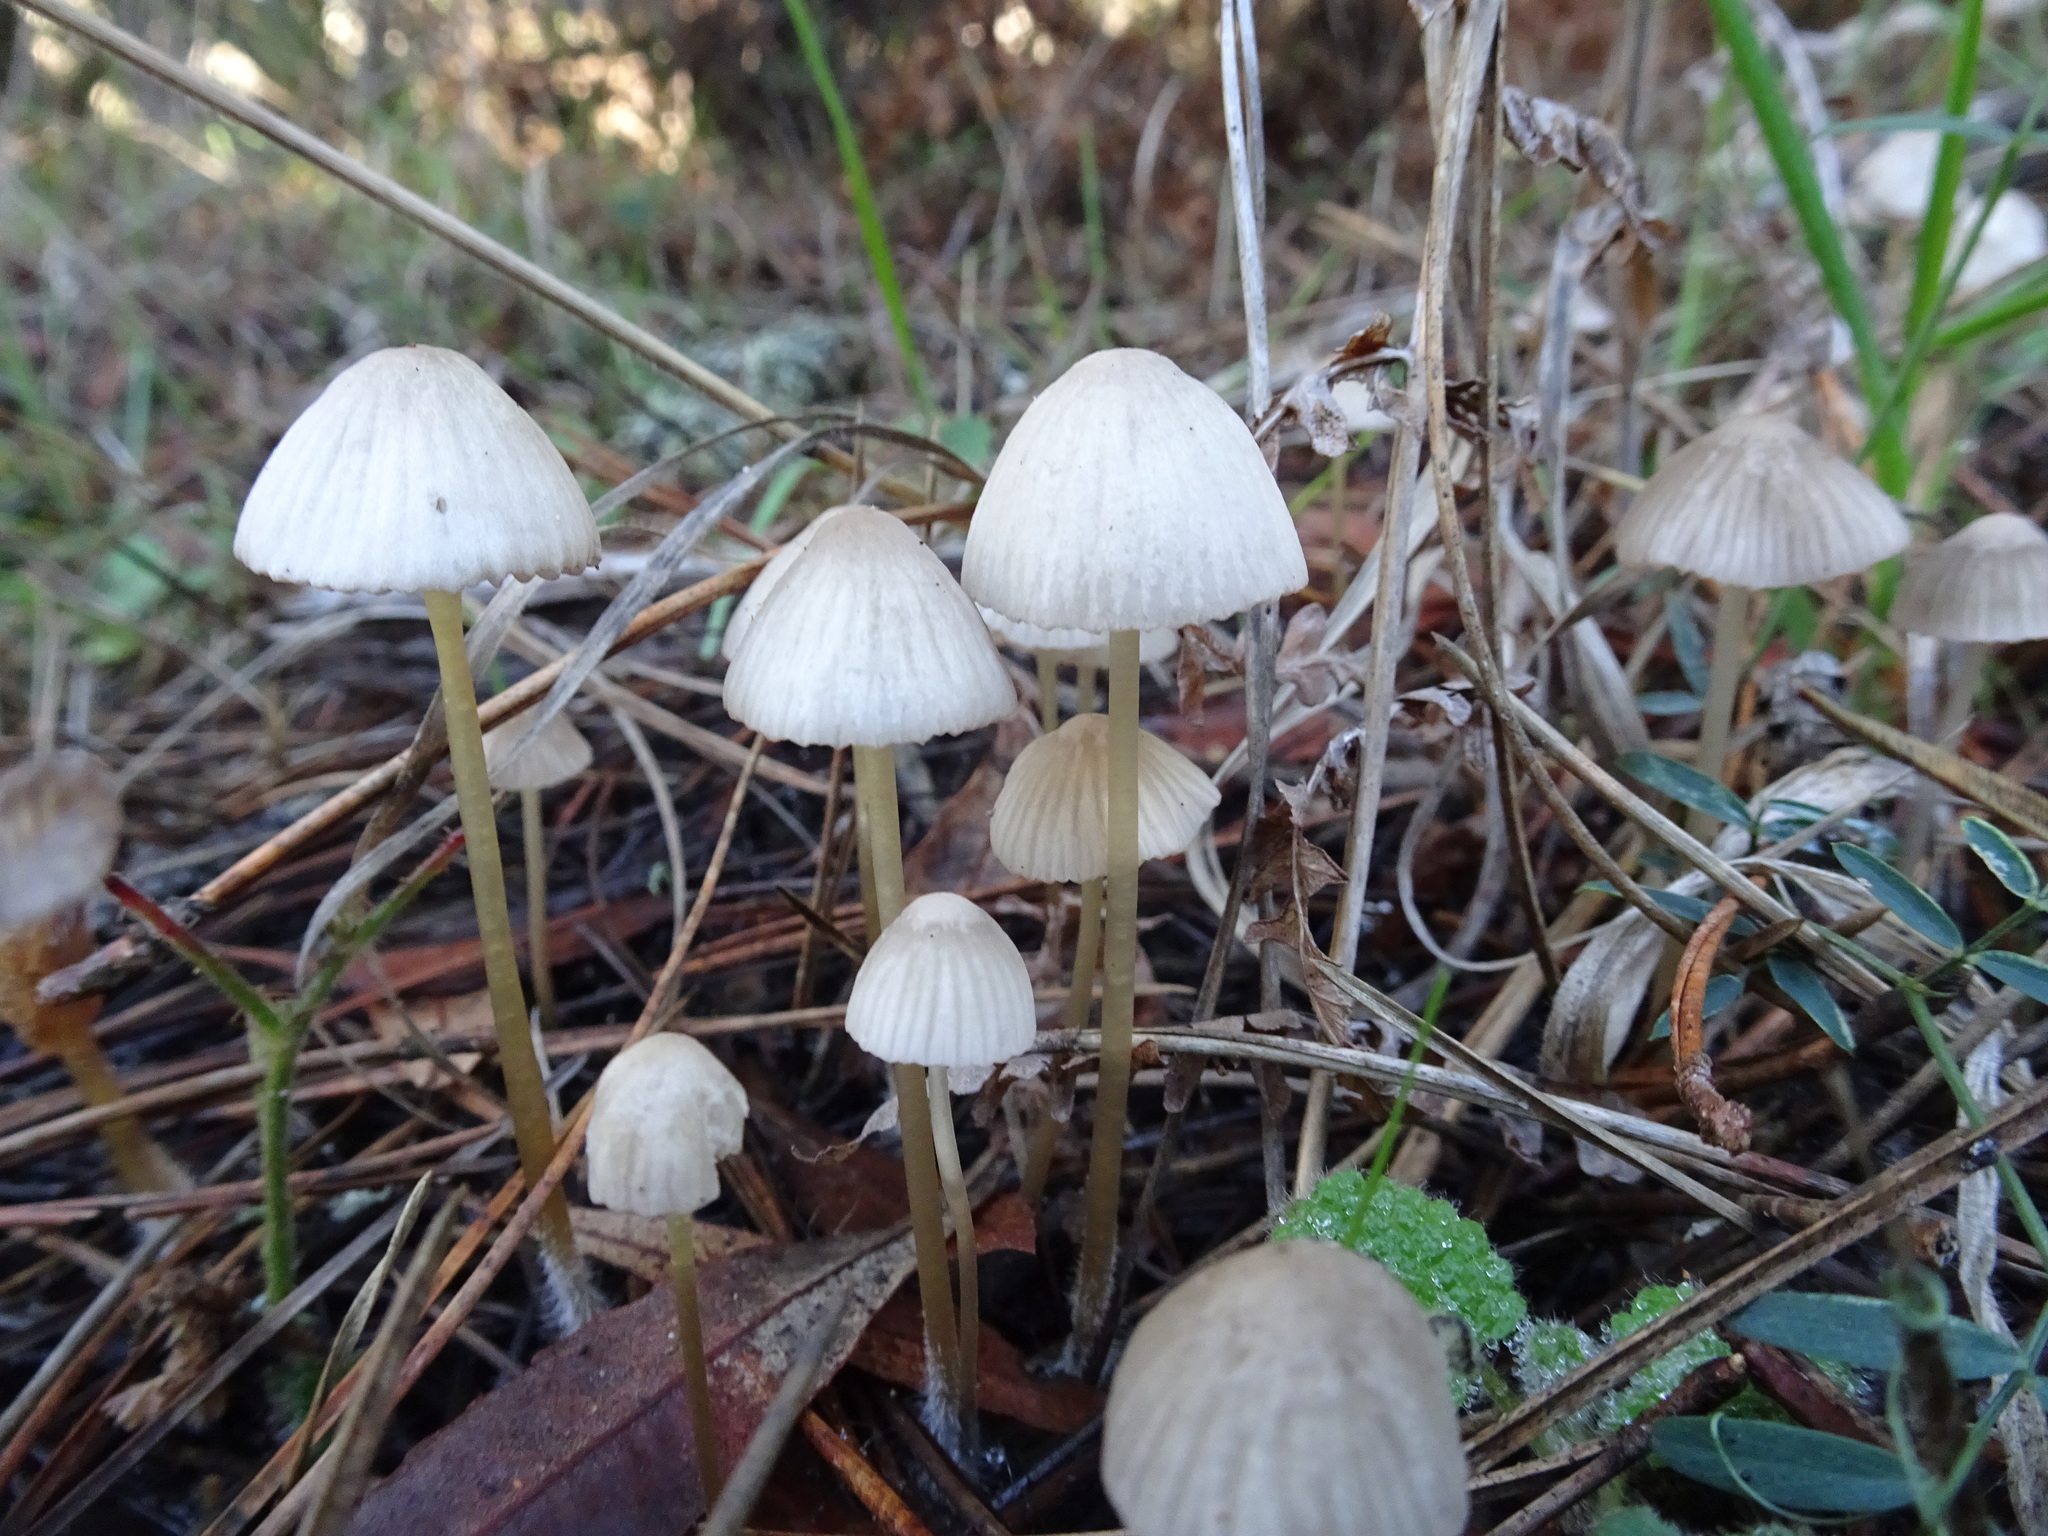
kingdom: Fungi
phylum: Basidiomycota
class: Agaricomycetes
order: Agaricales
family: Mycenaceae
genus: Mycena
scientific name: Mycena capillaripes
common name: Pinkedge bonnet
